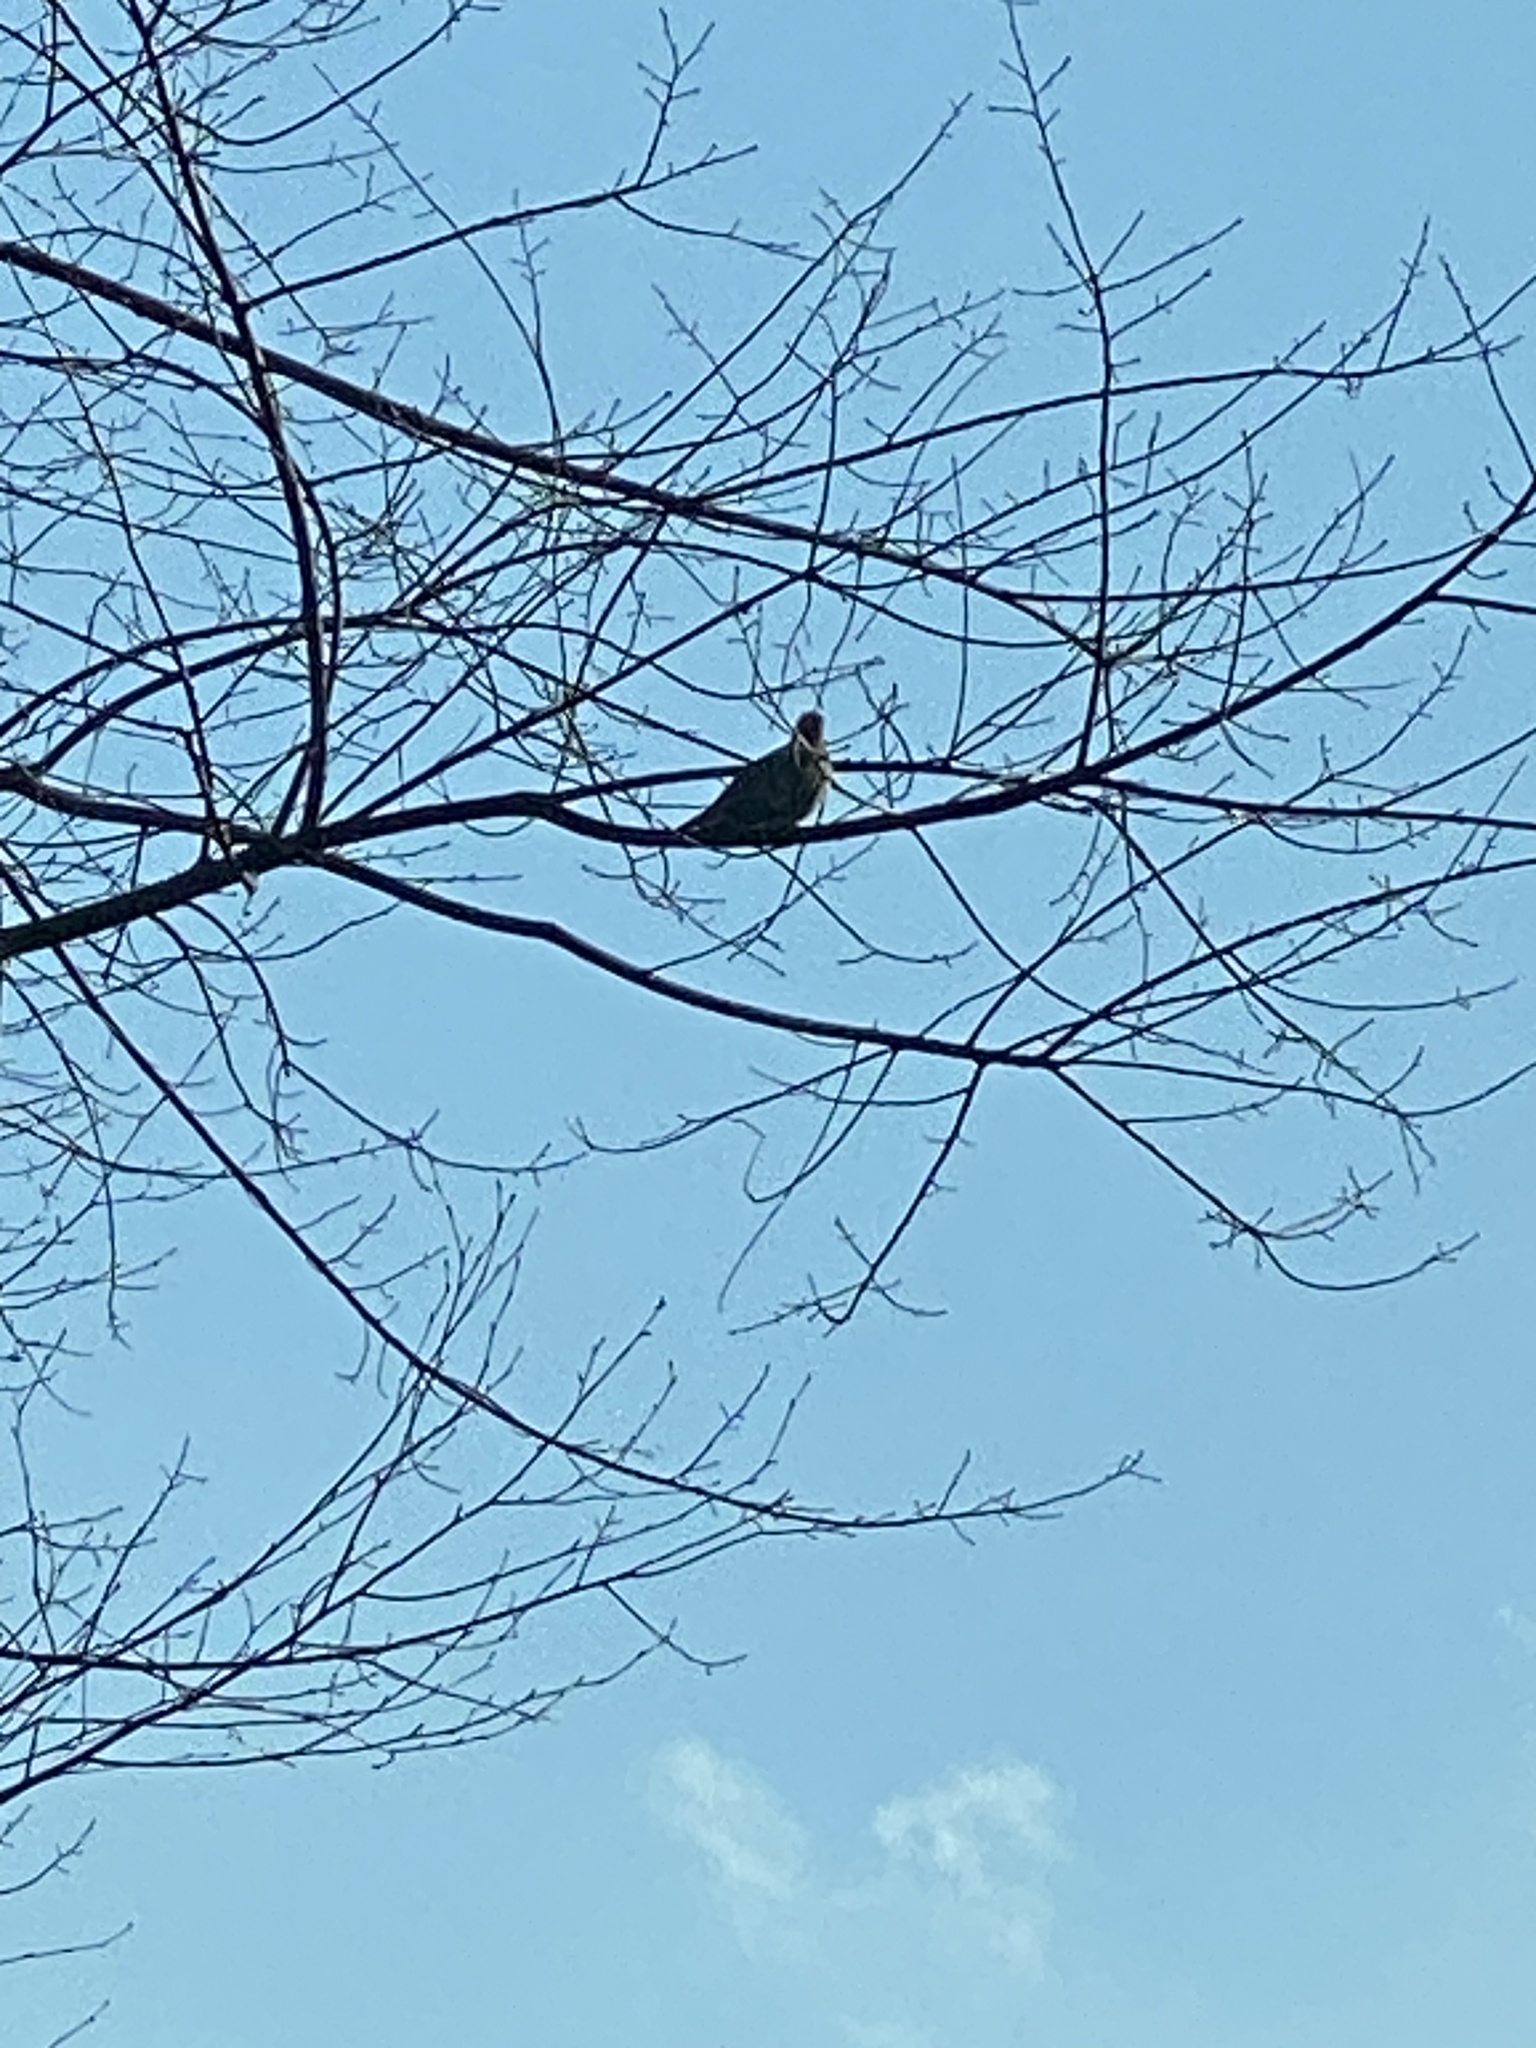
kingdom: Animalia
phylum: Chordata
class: Aves
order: Columbiformes
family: Columbidae
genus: Zenaida
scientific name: Zenaida macroura
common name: Mourning dove
